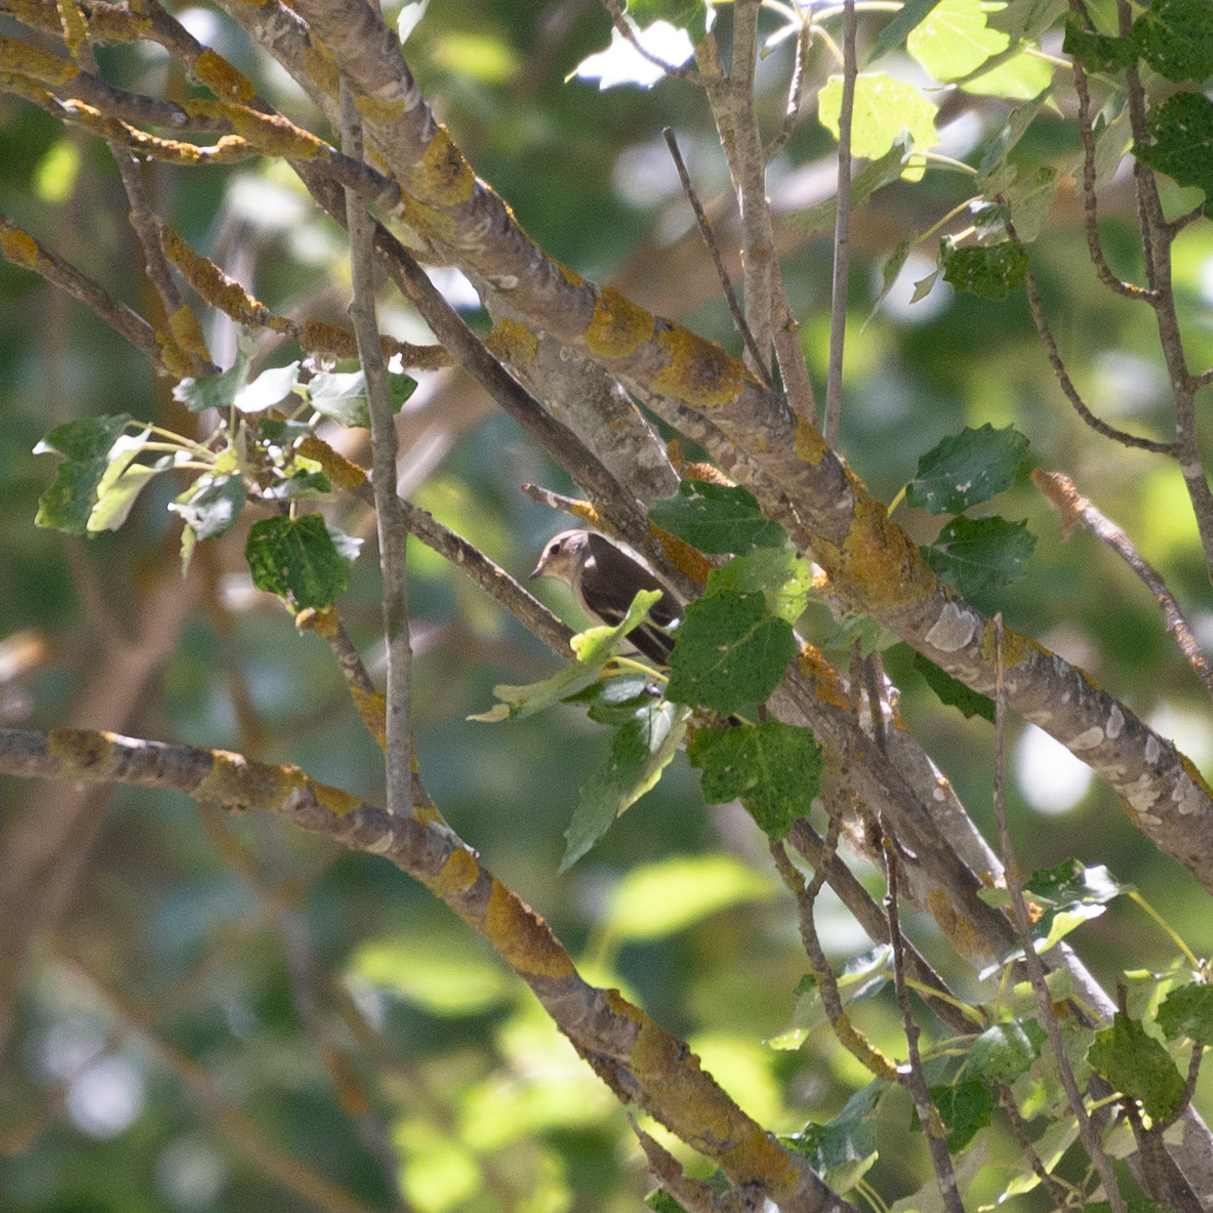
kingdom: Animalia
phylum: Chordata
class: Aves
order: Passeriformes
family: Muscicapidae
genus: Ficedula
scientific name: Ficedula hypoleuca
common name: European pied flycatcher
